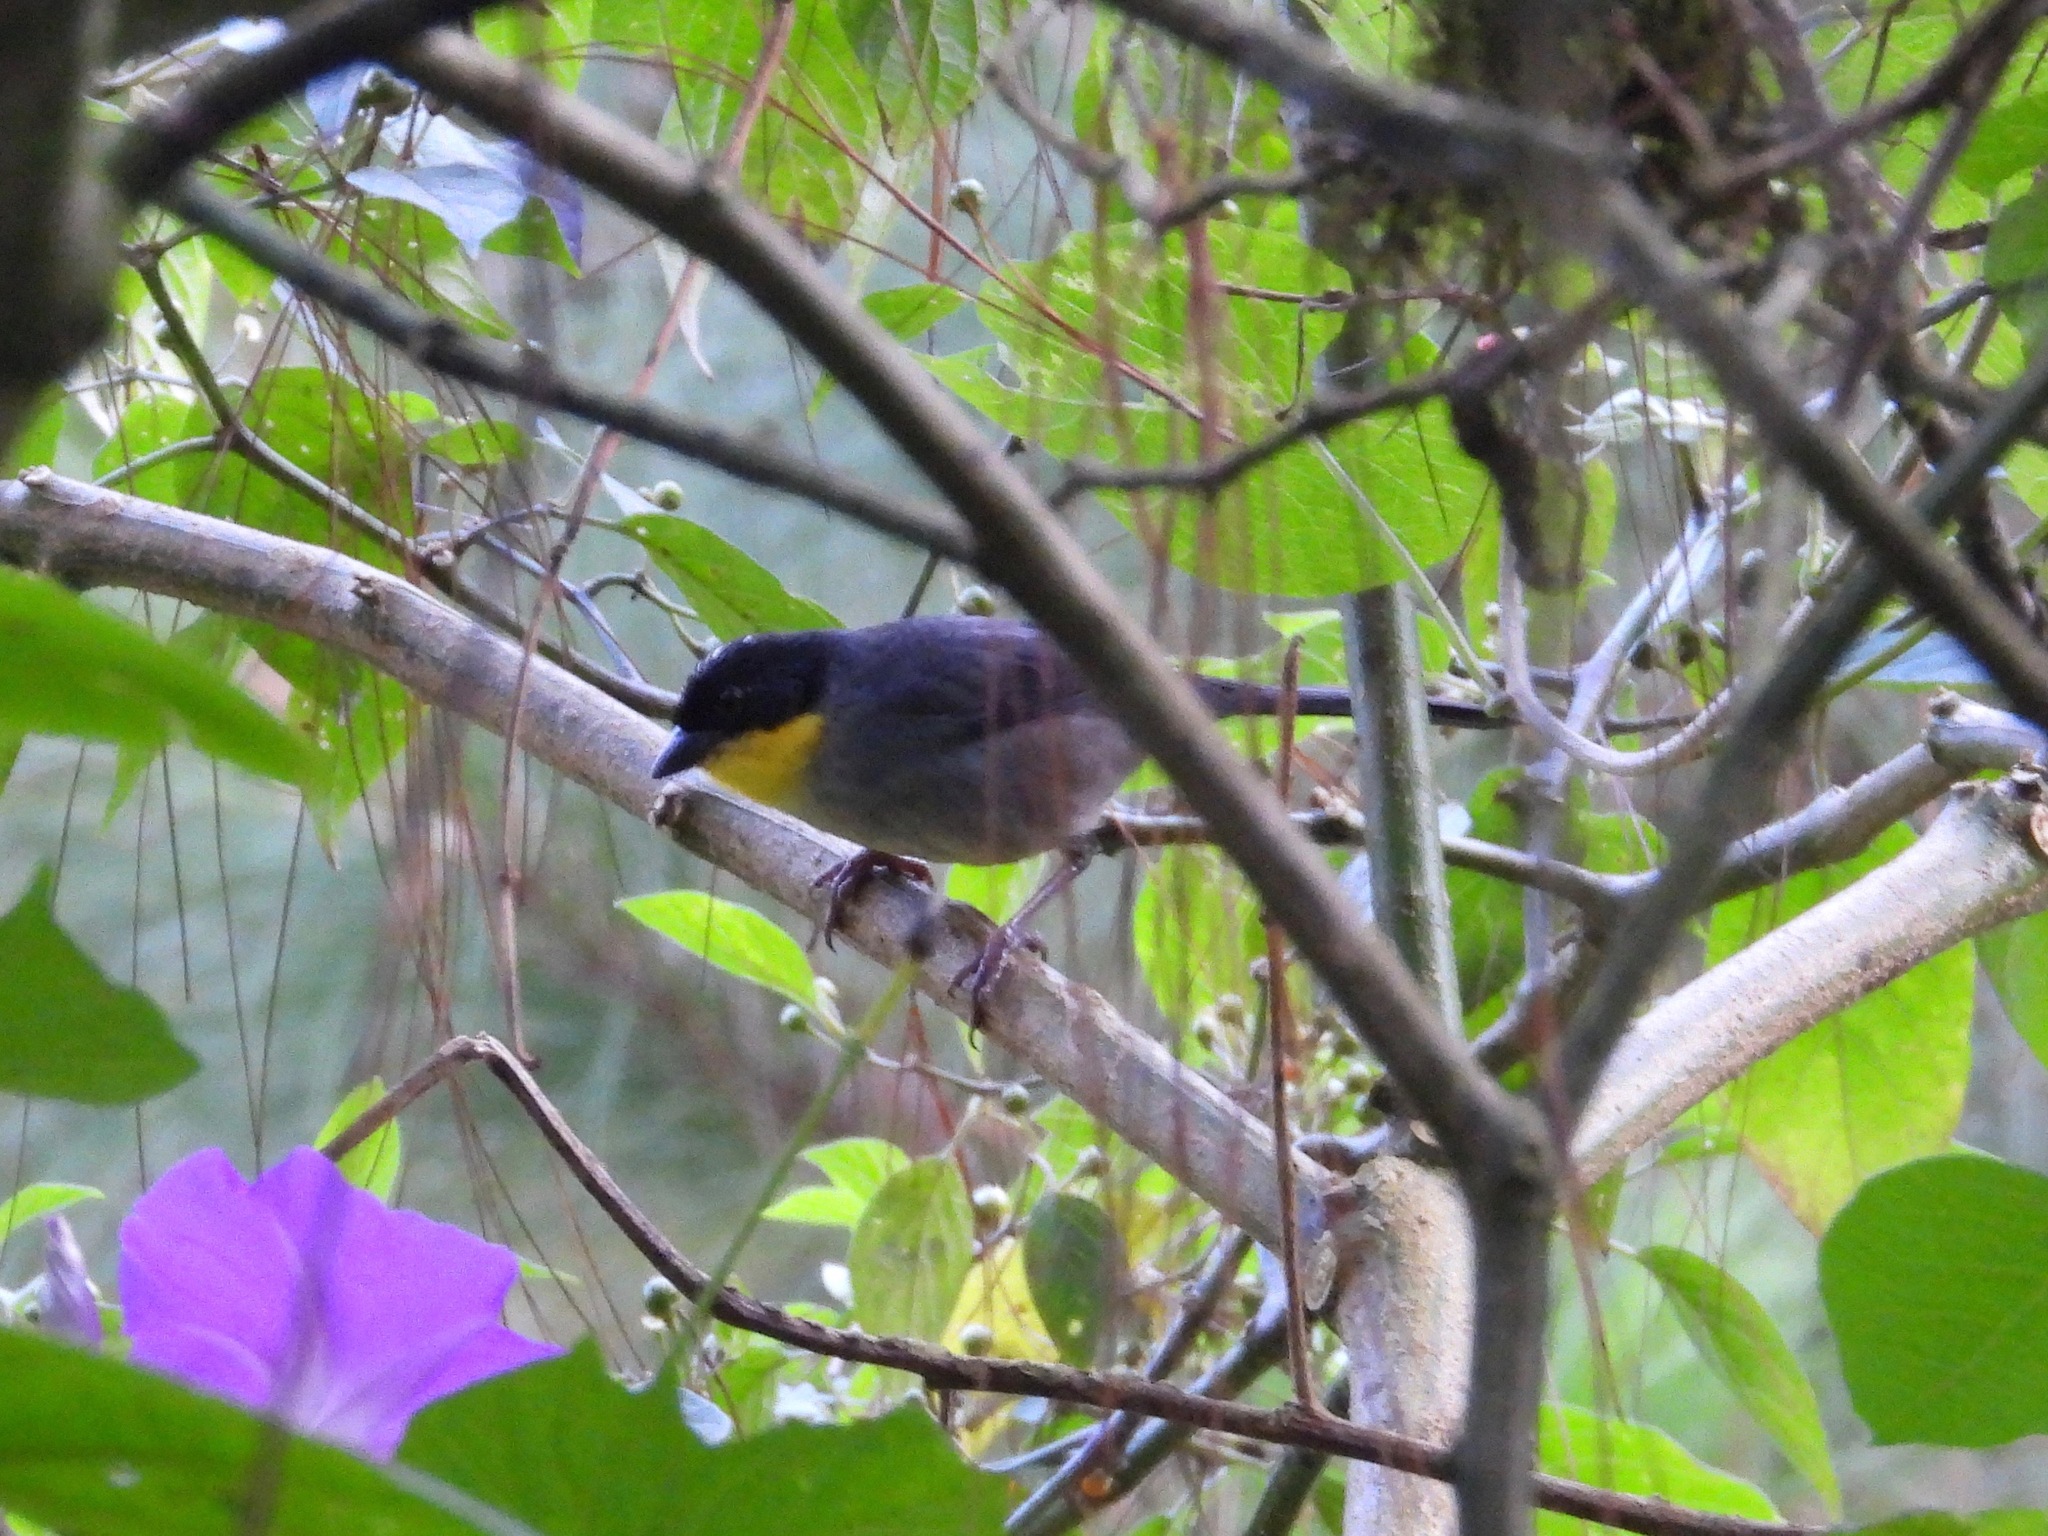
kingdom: Animalia
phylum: Chordata
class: Aves
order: Passeriformes
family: Passerellidae
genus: Atlapetes
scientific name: Atlapetes albinucha
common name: White-naped brush-finch
